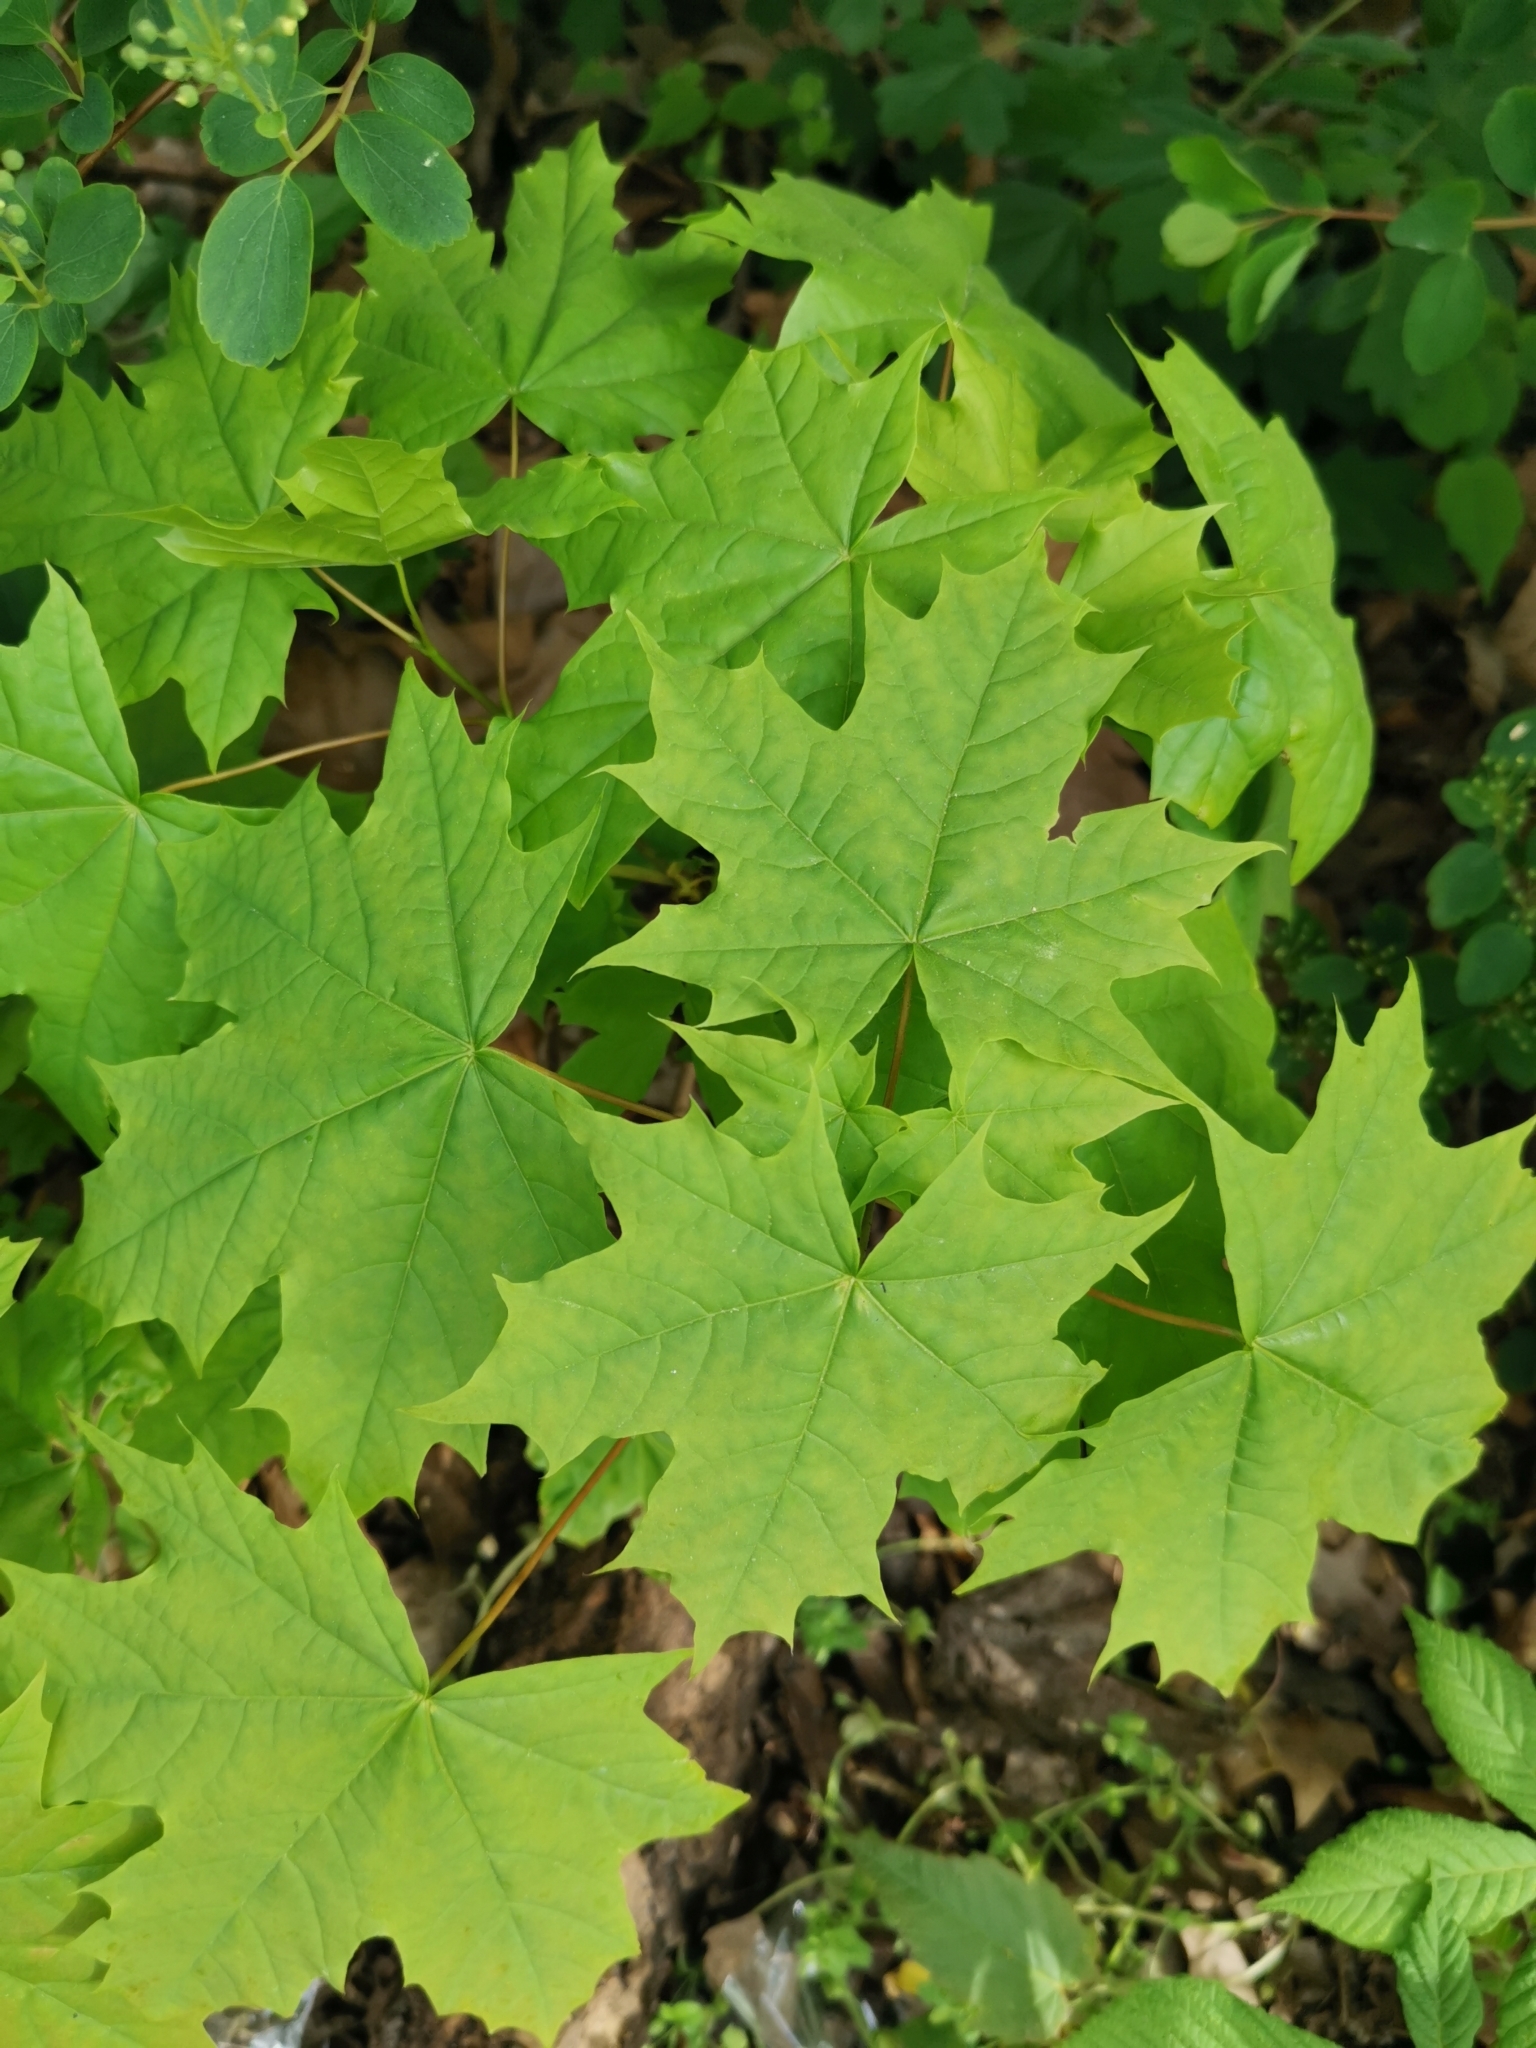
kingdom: Plantae
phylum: Tracheophyta
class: Magnoliopsida
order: Sapindales
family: Sapindaceae
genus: Acer
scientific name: Acer platanoides
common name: Norway maple
